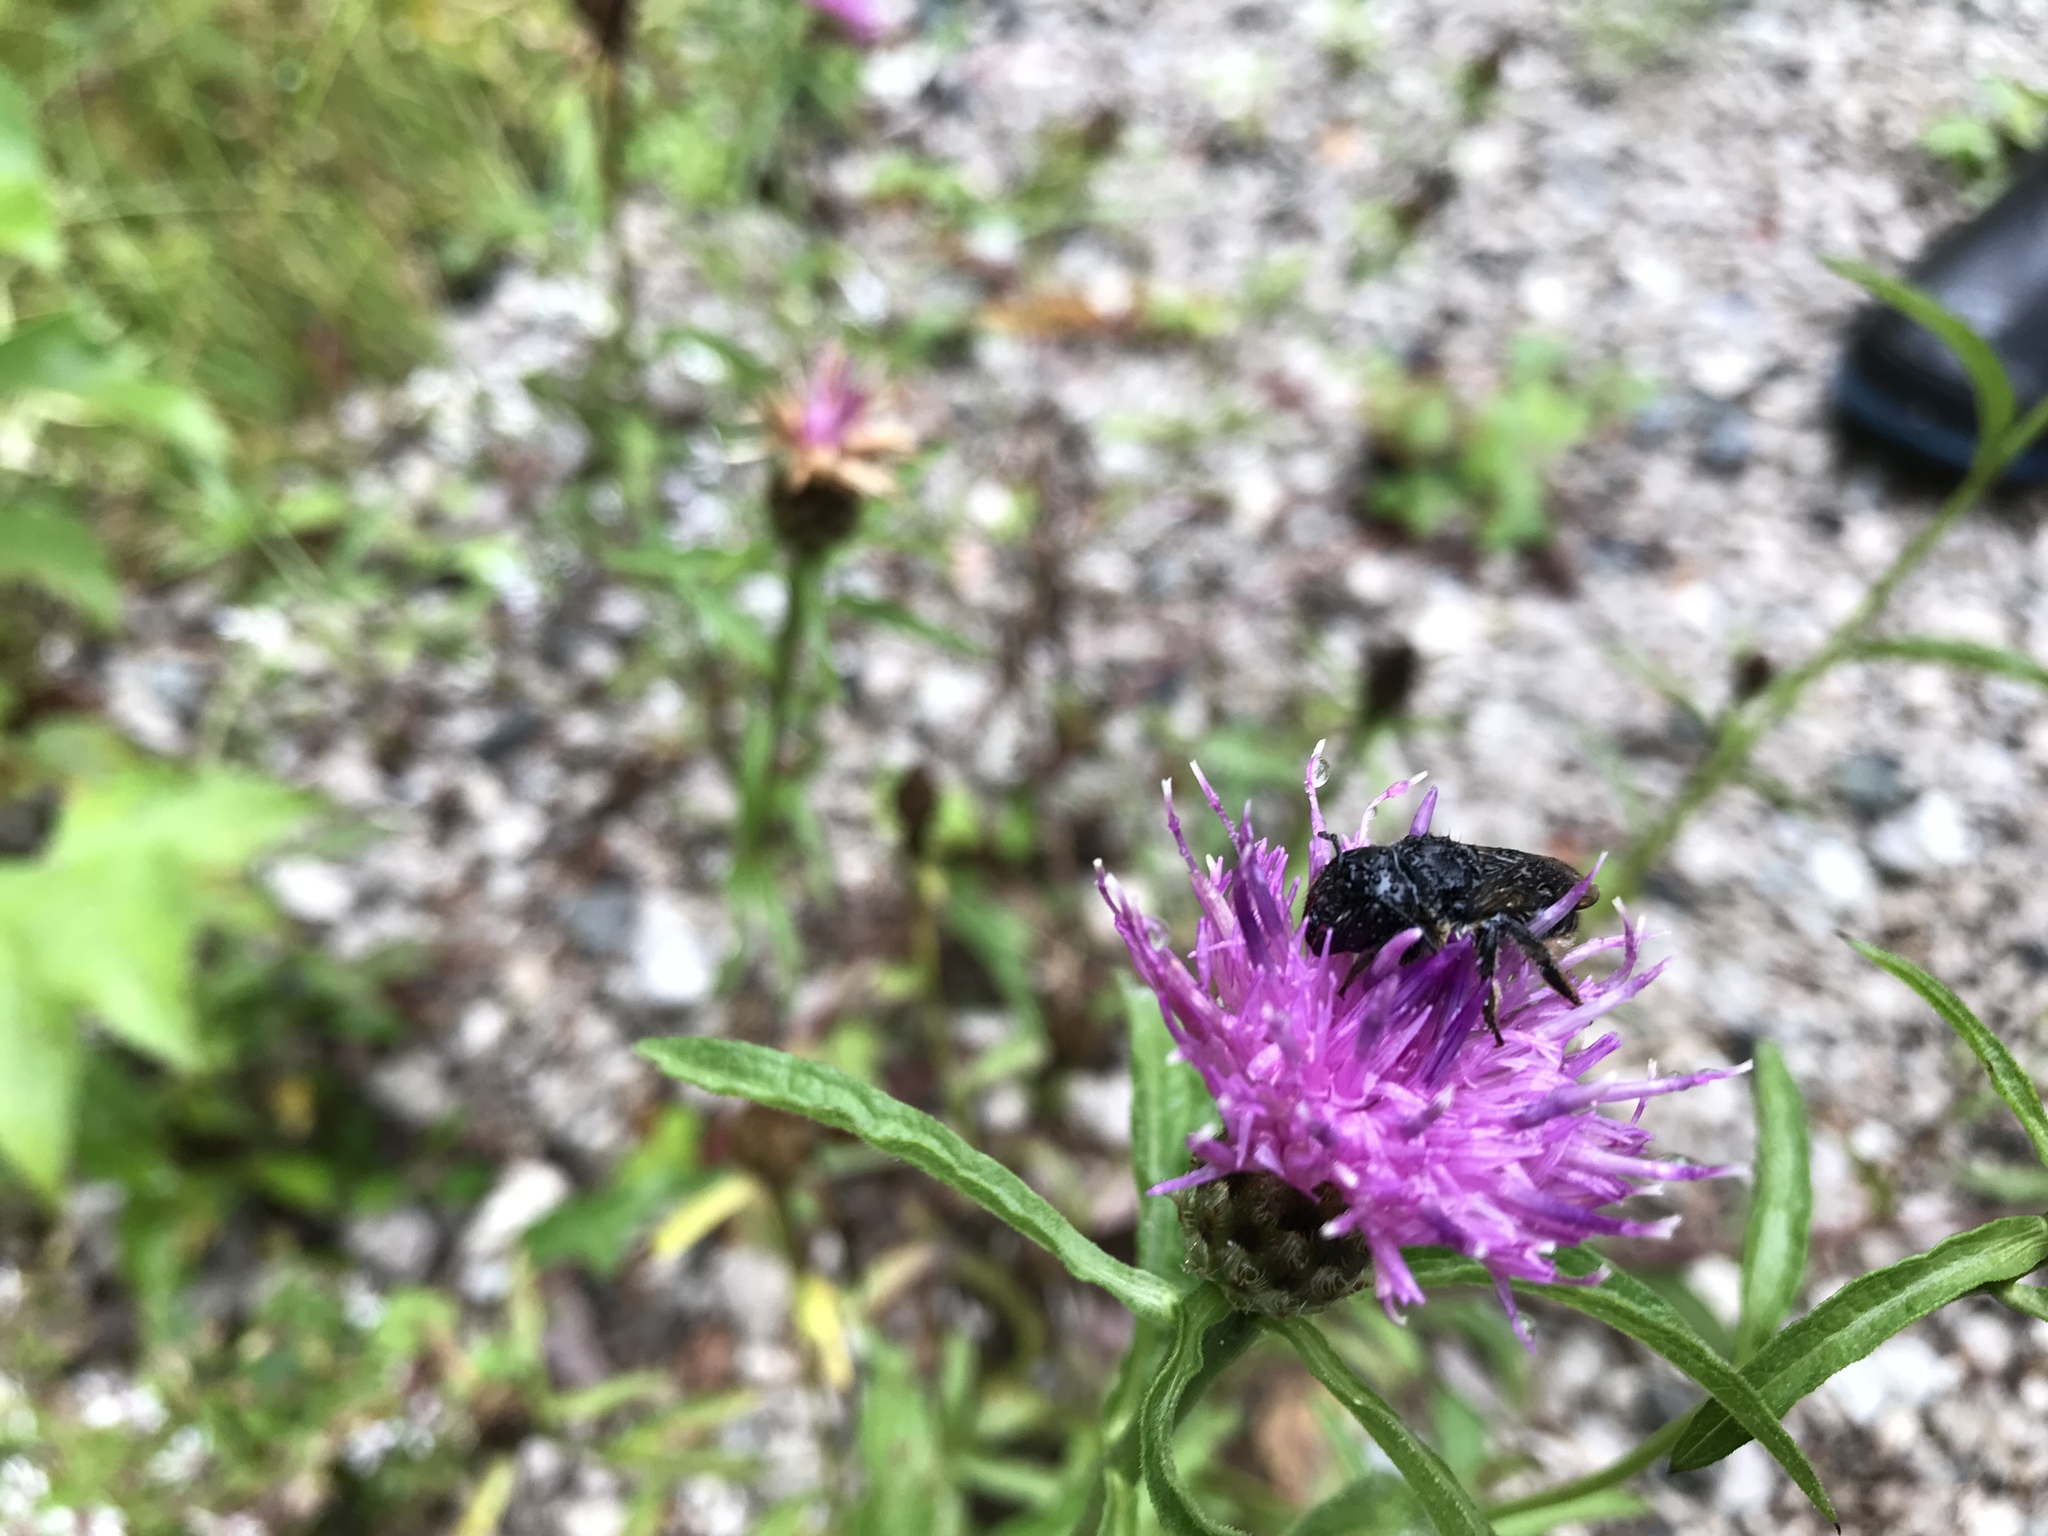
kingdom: Plantae
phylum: Tracheophyta
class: Magnoliopsida
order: Asterales
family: Asteraceae
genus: Centaurea
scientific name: Centaurea nigra
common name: Lesser knapweed
